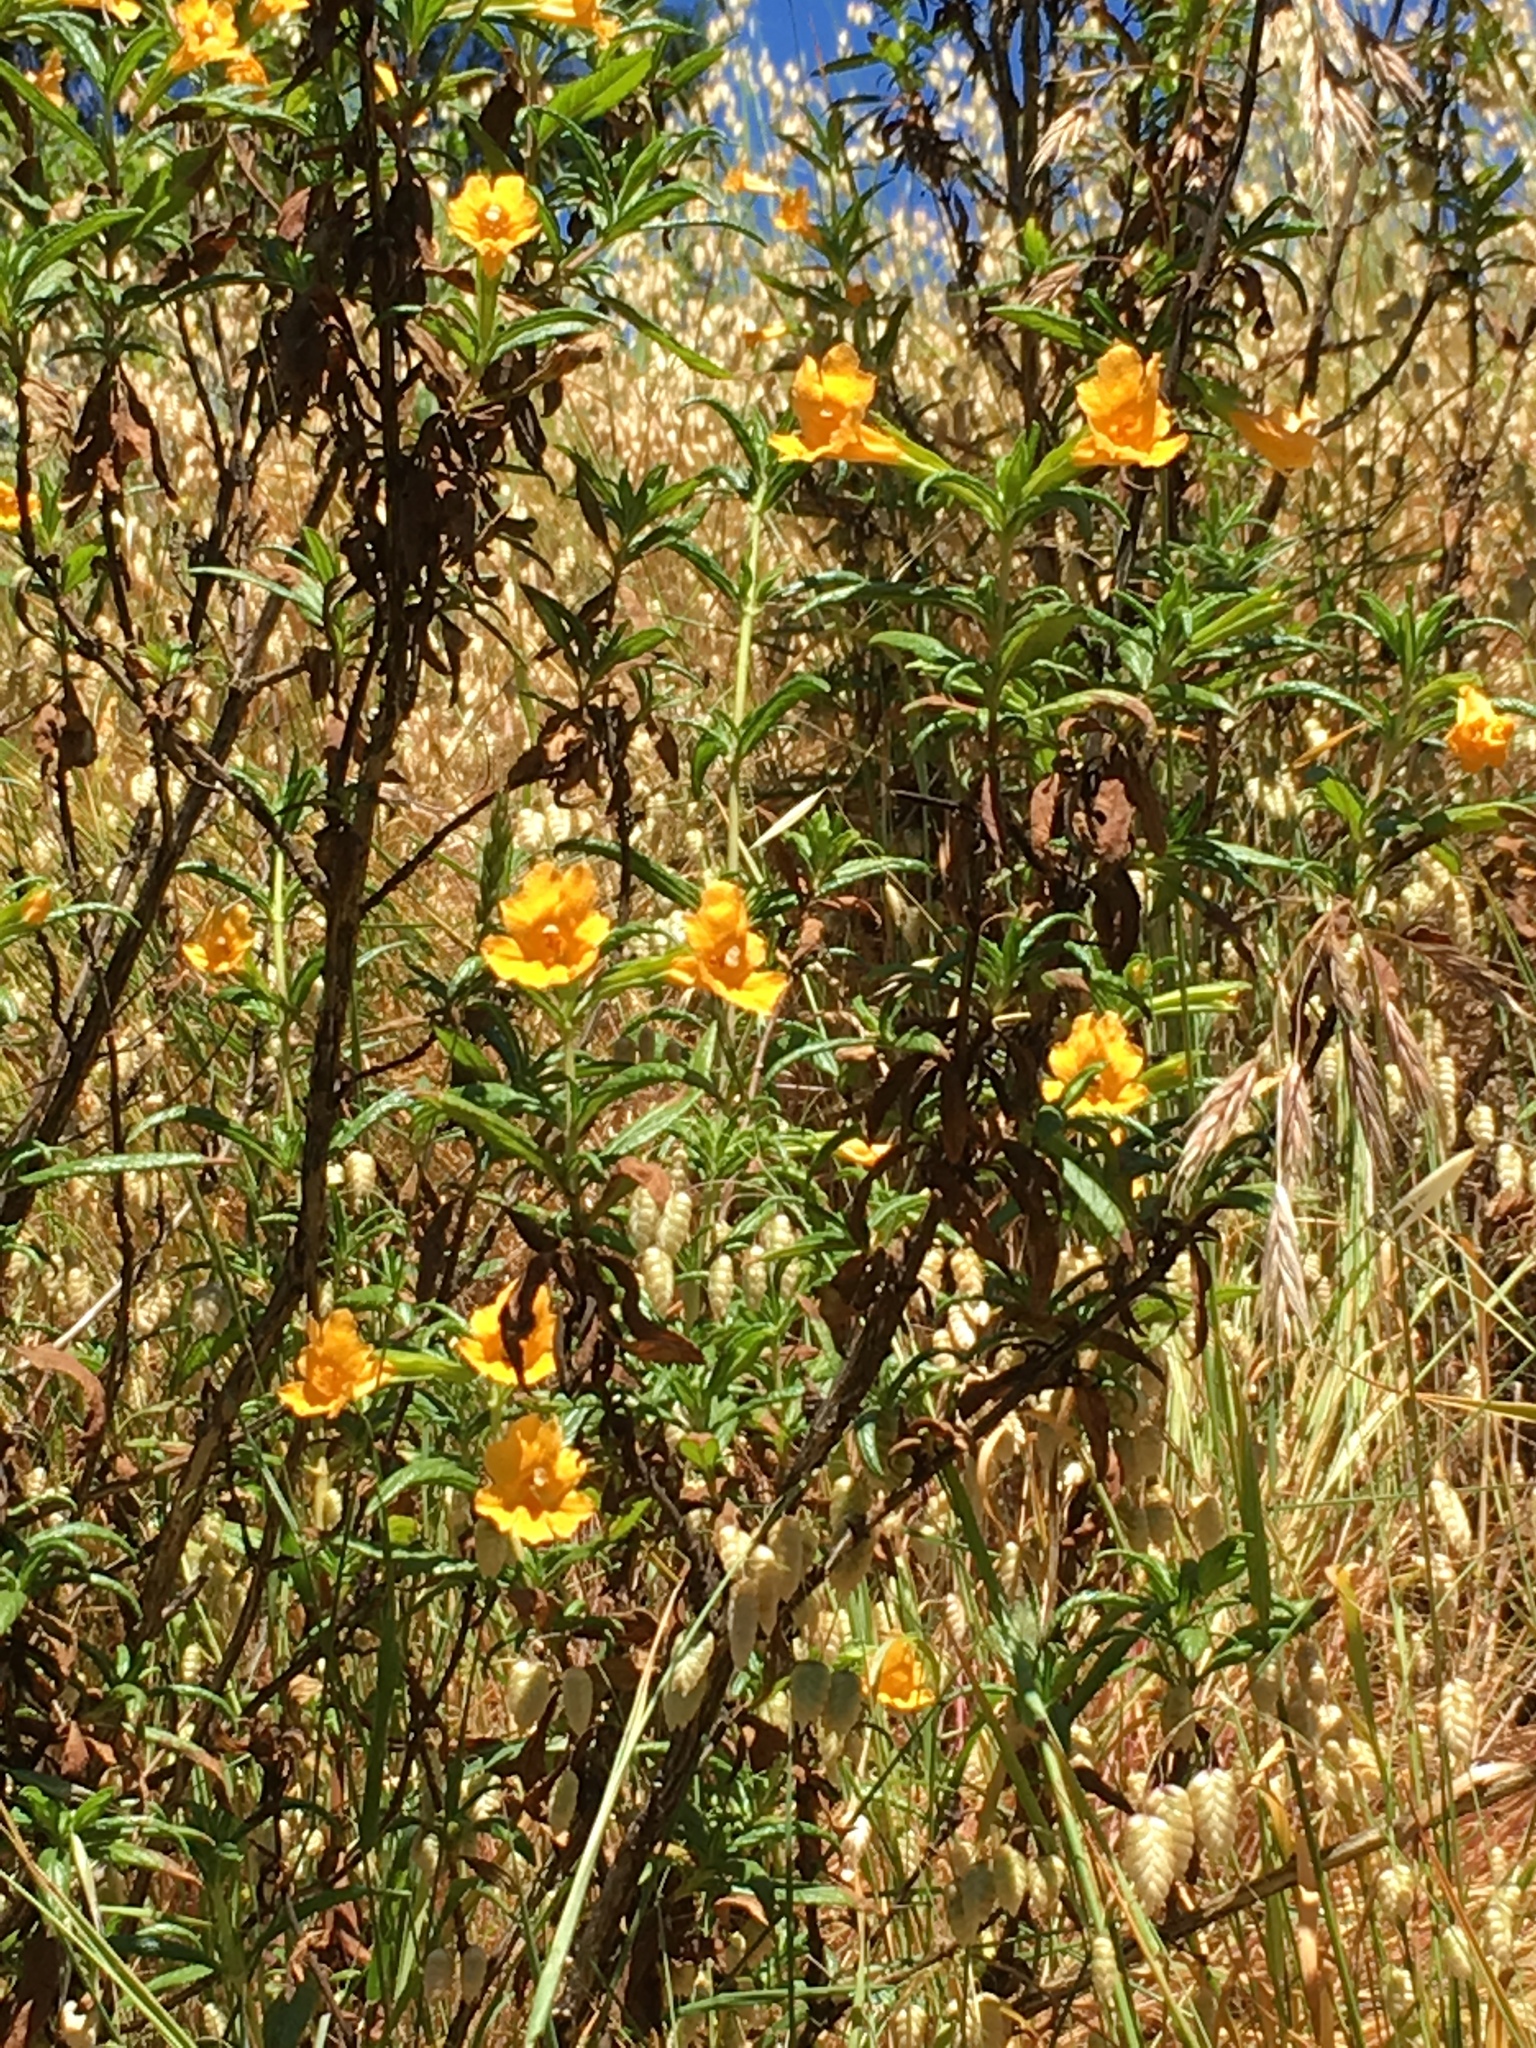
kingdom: Plantae
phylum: Tracheophyta
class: Magnoliopsida
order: Lamiales
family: Phrymaceae
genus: Diplacus
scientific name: Diplacus aurantiacus
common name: Bush monkey-flower
